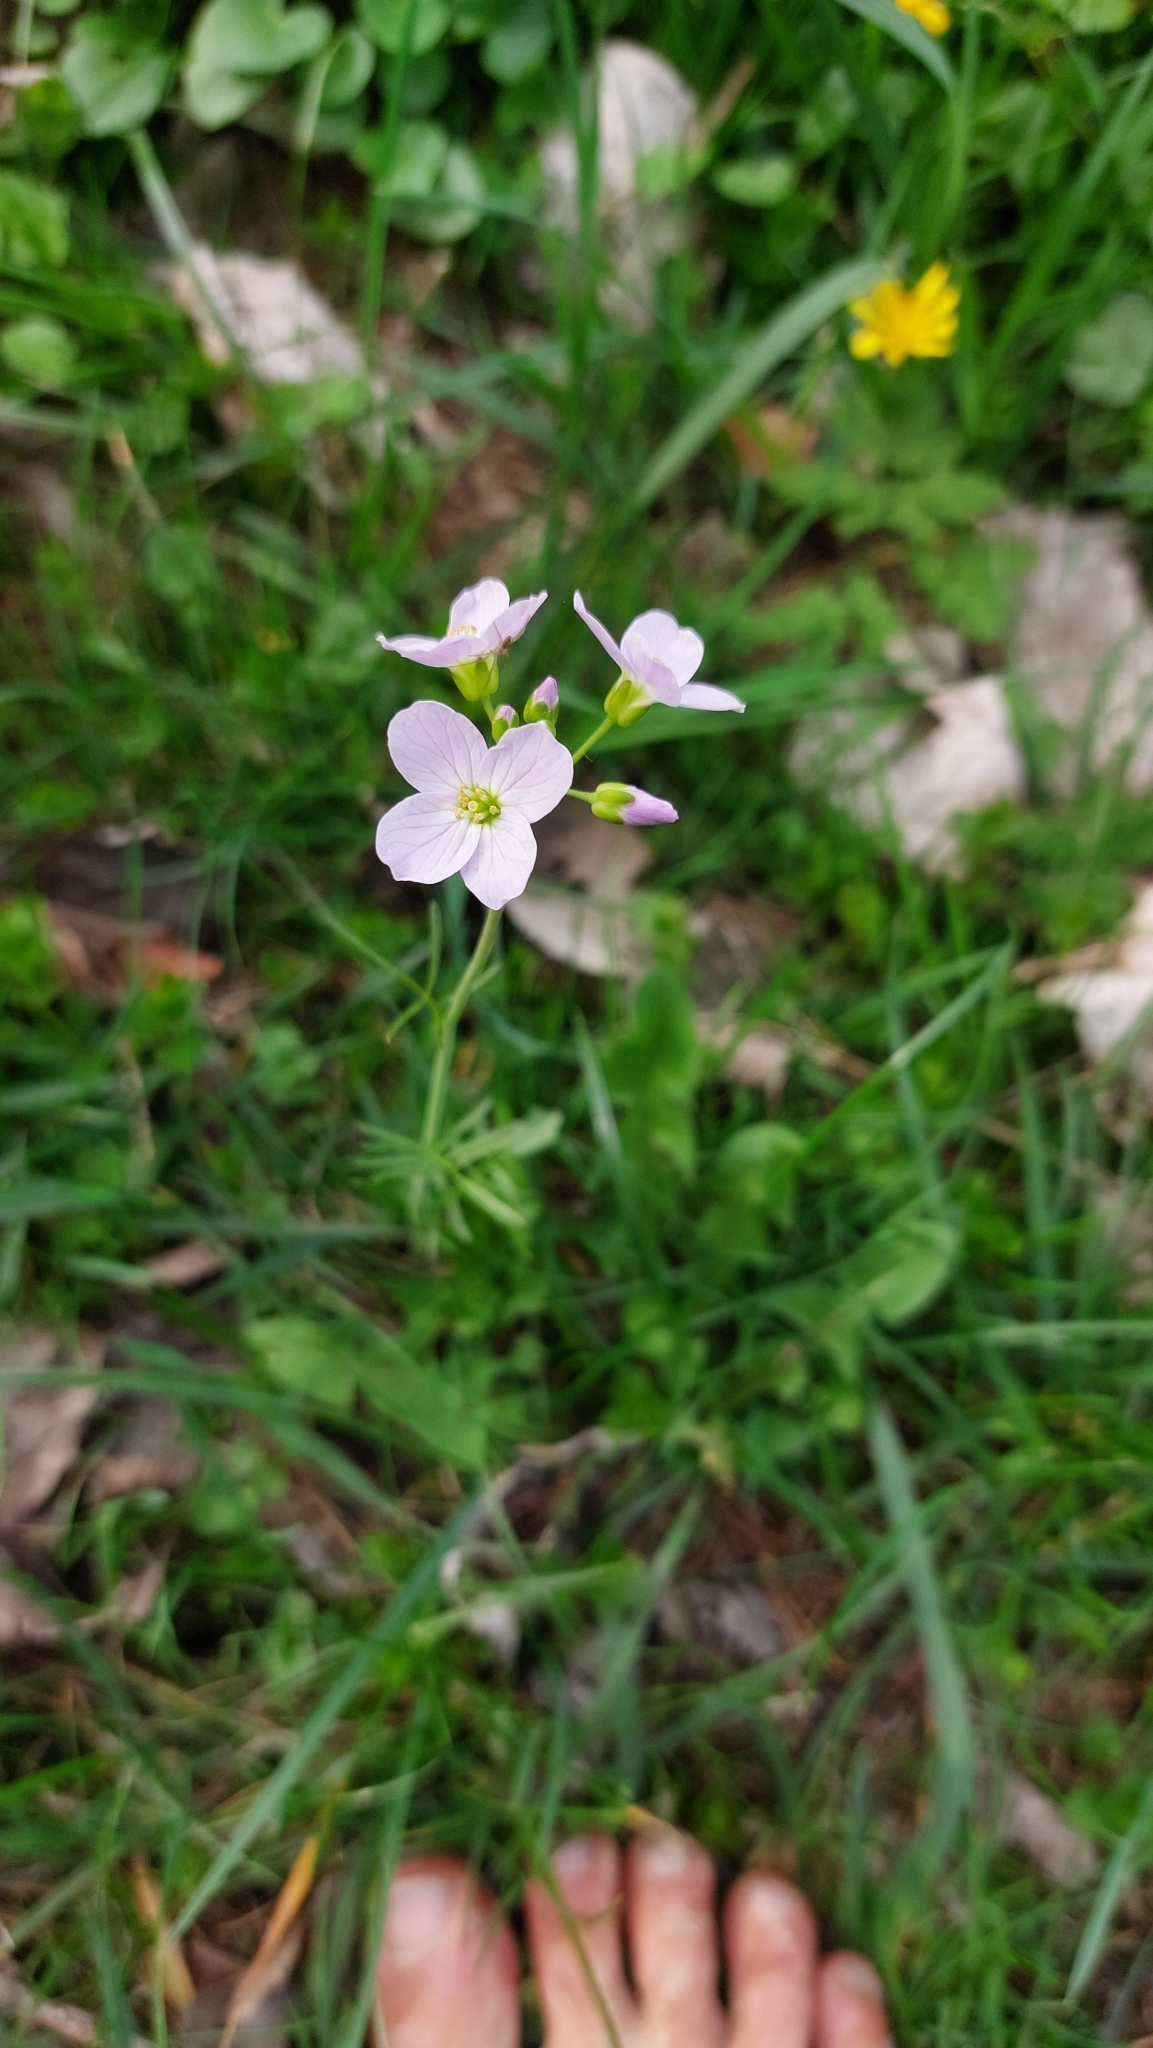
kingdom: Plantae
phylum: Tracheophyta
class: Magnoliopsida
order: Brassicales
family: Brassicaceae
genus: Cardamine
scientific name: Cardamine pratensis
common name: Cuckoo flower
